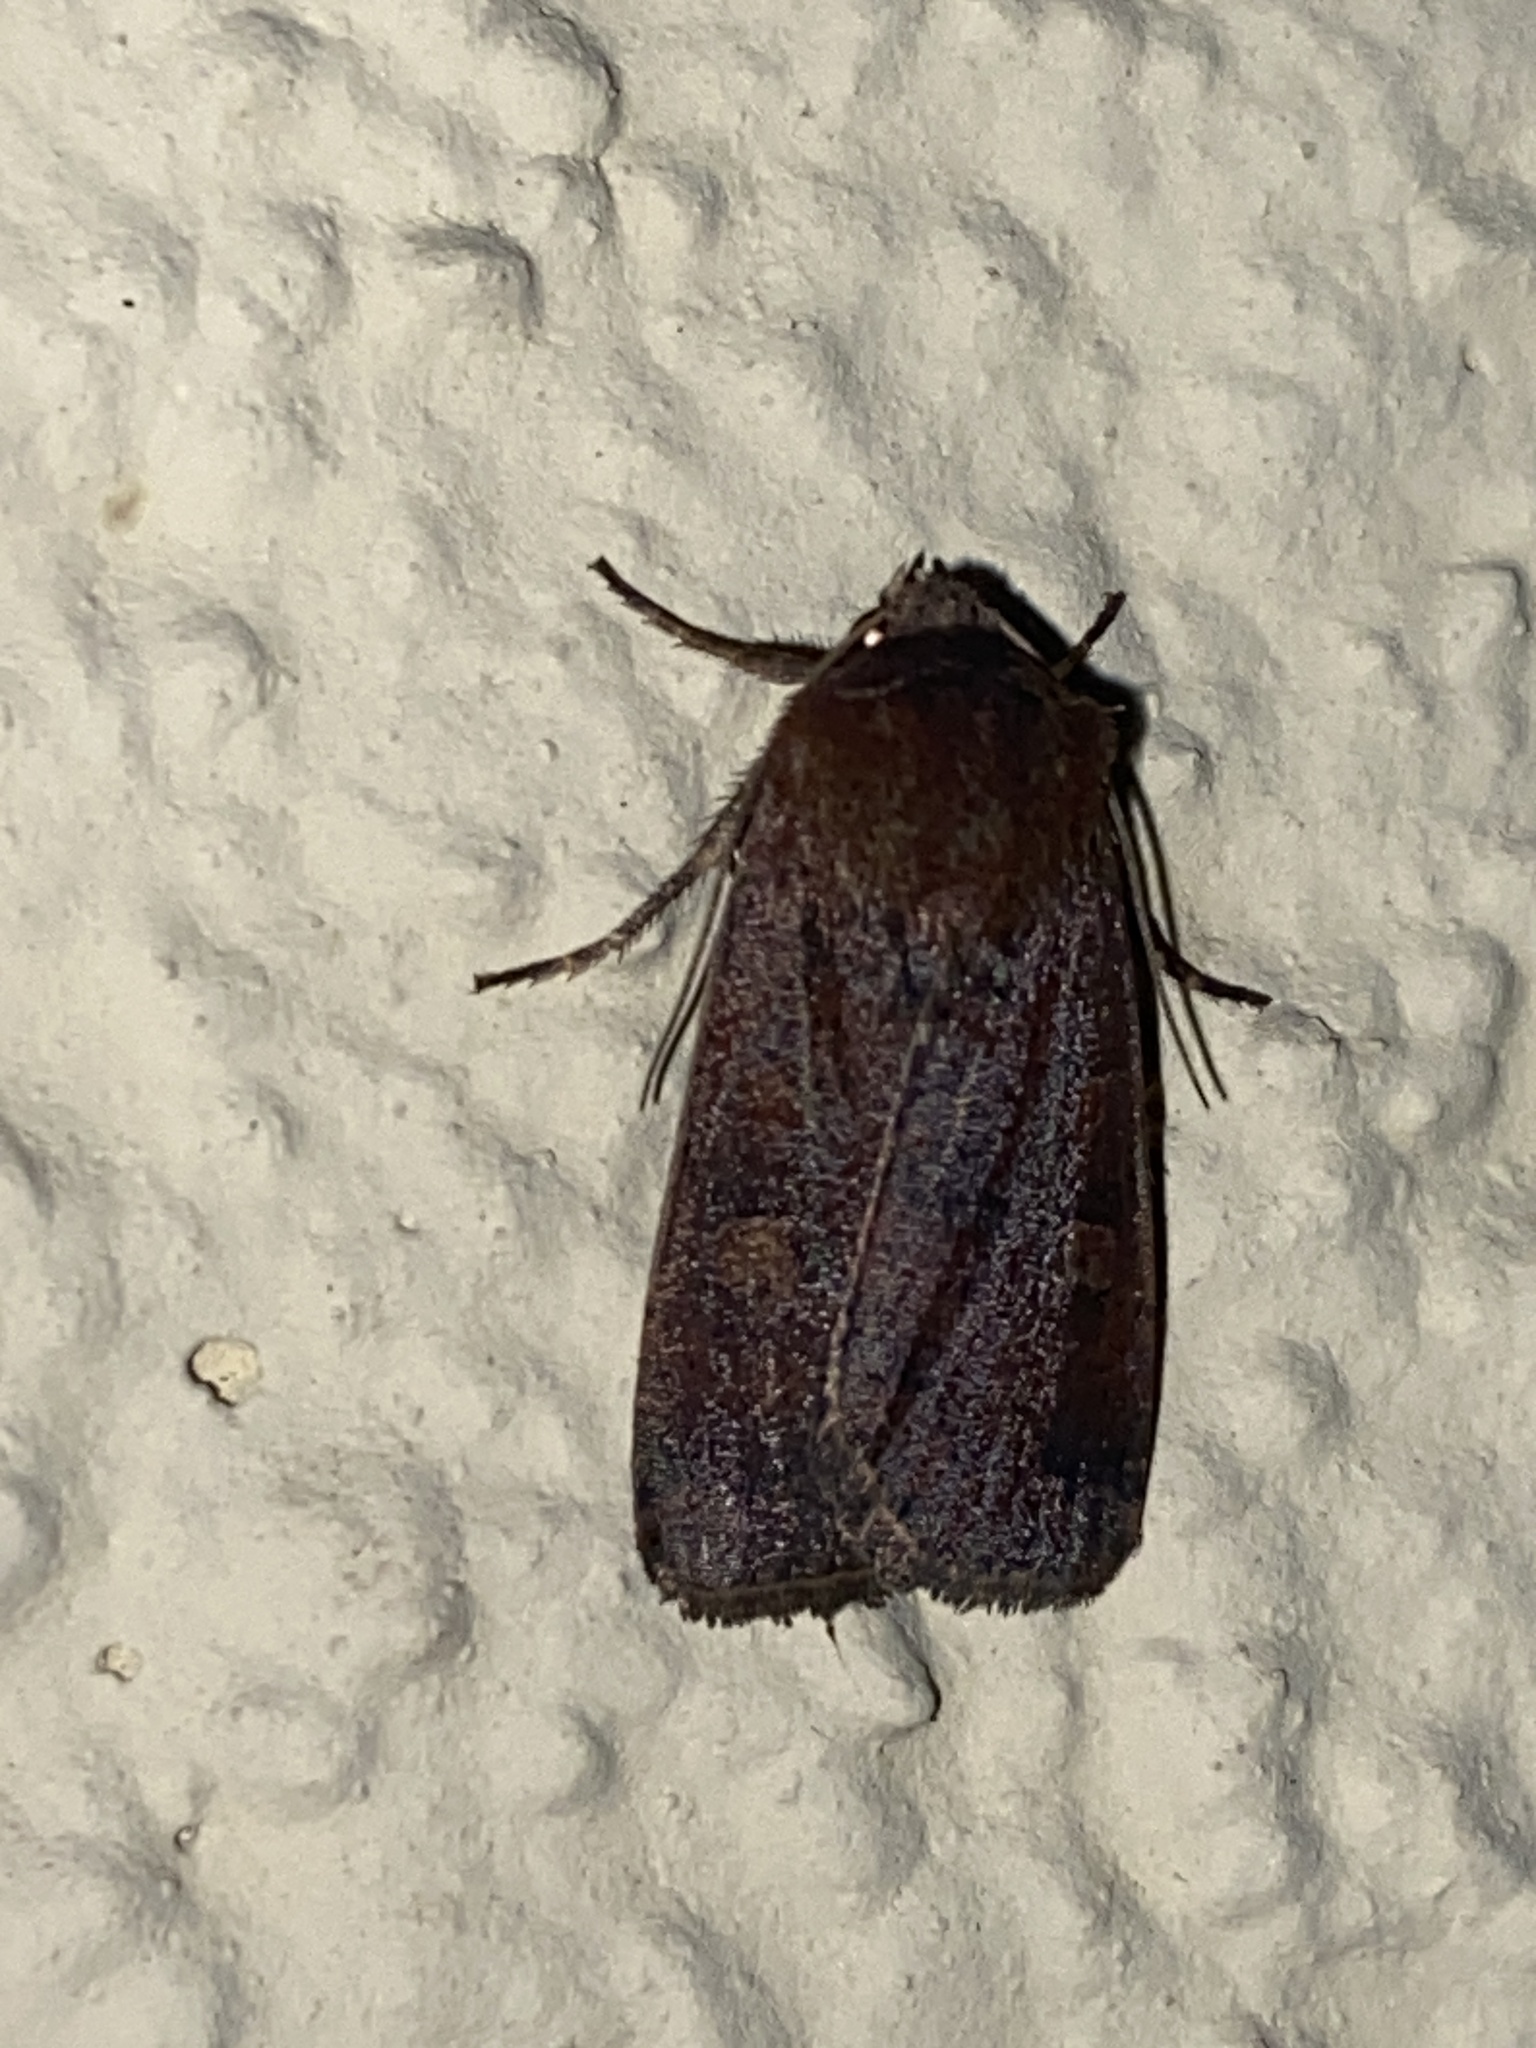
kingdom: Animalia
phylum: Arthropoda
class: Insecta
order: Lepidoptera
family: Noctuidae
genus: Xestia
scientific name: Xestia xanthographa
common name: Square-spot rustic
